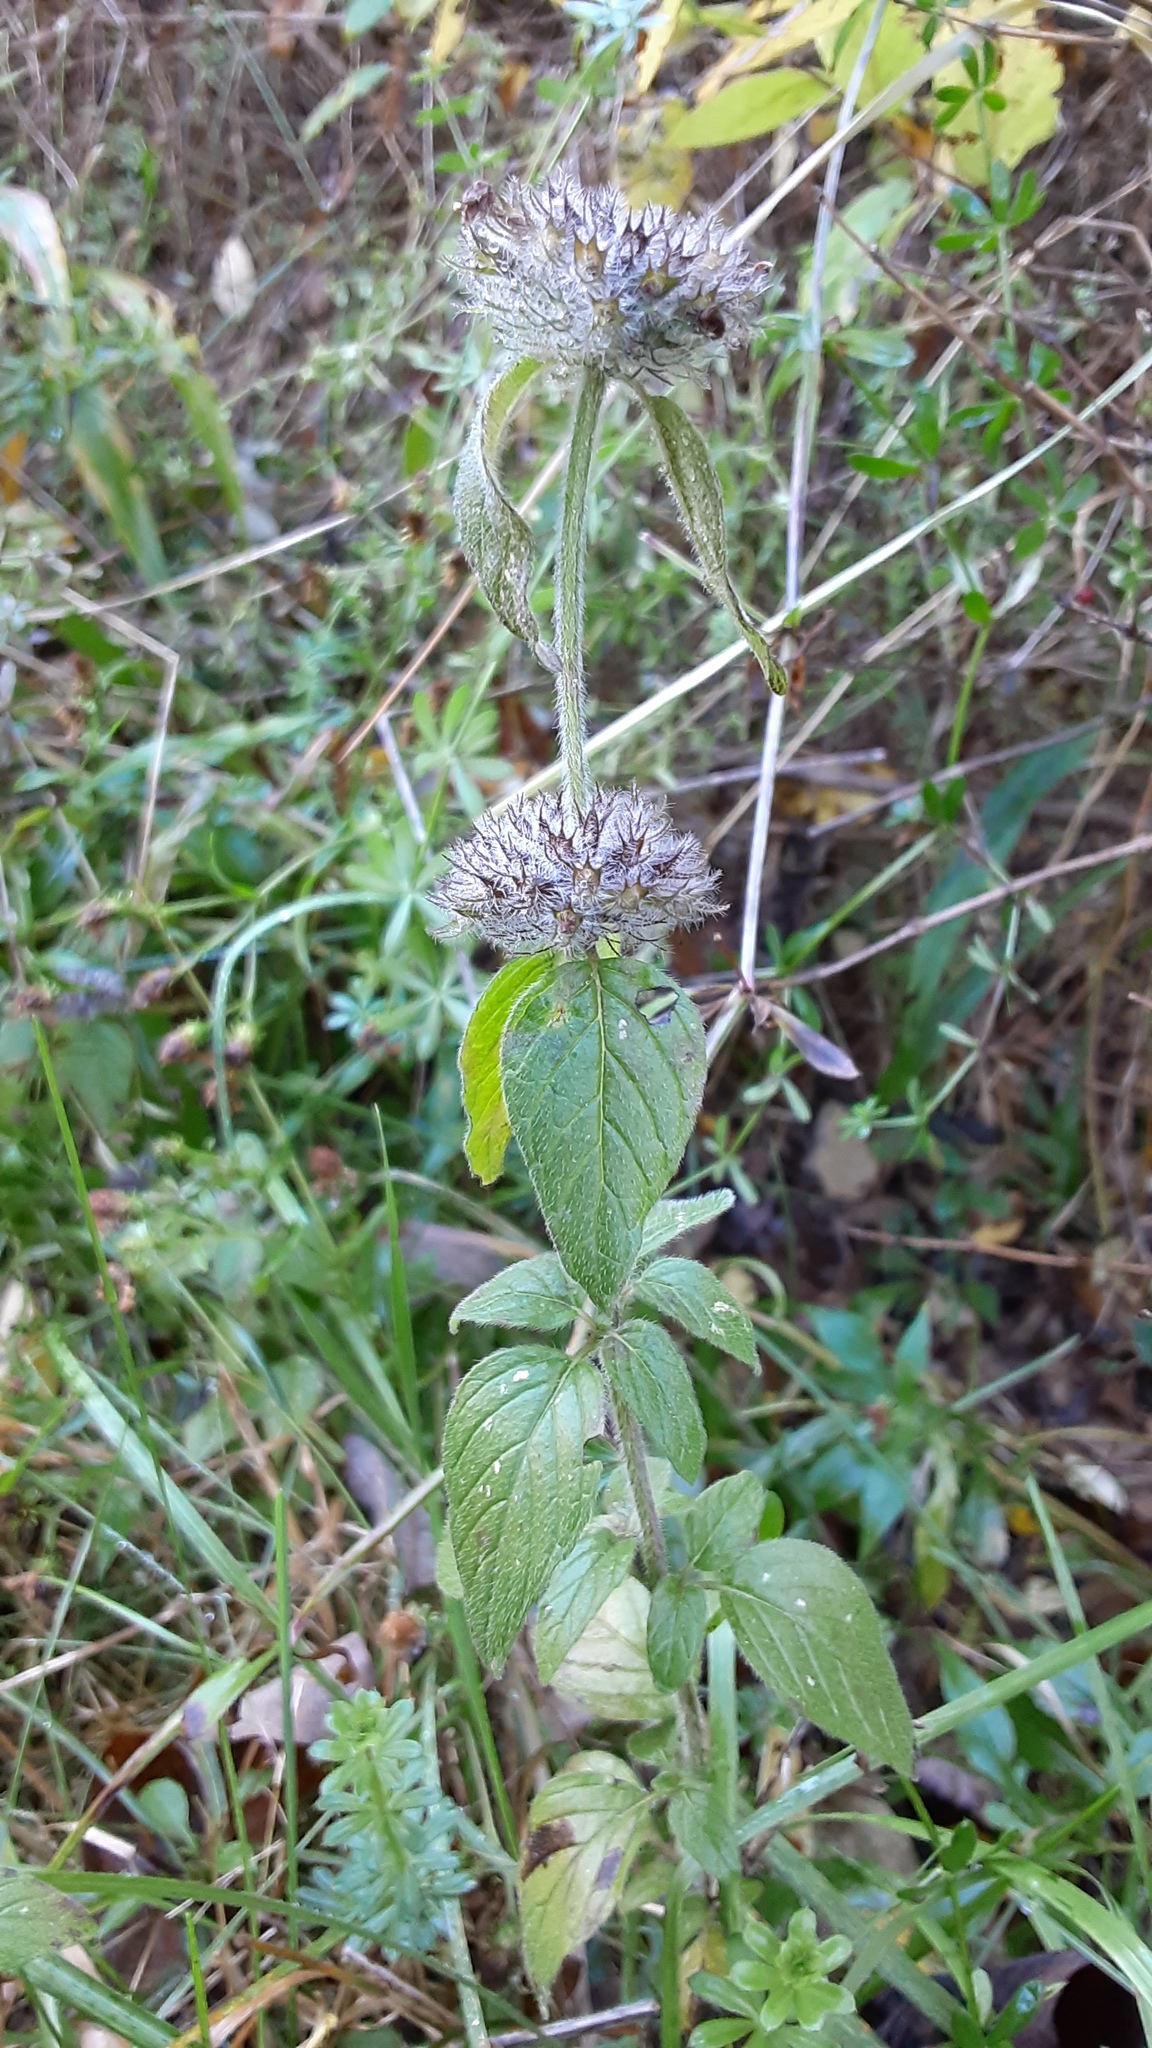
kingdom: Plantae
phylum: Tracheophyta
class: Magnoliopsida
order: Lamiales
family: Lamiaceae
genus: Clinopodium
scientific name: Clinopodium vulgare
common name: Wild basil
